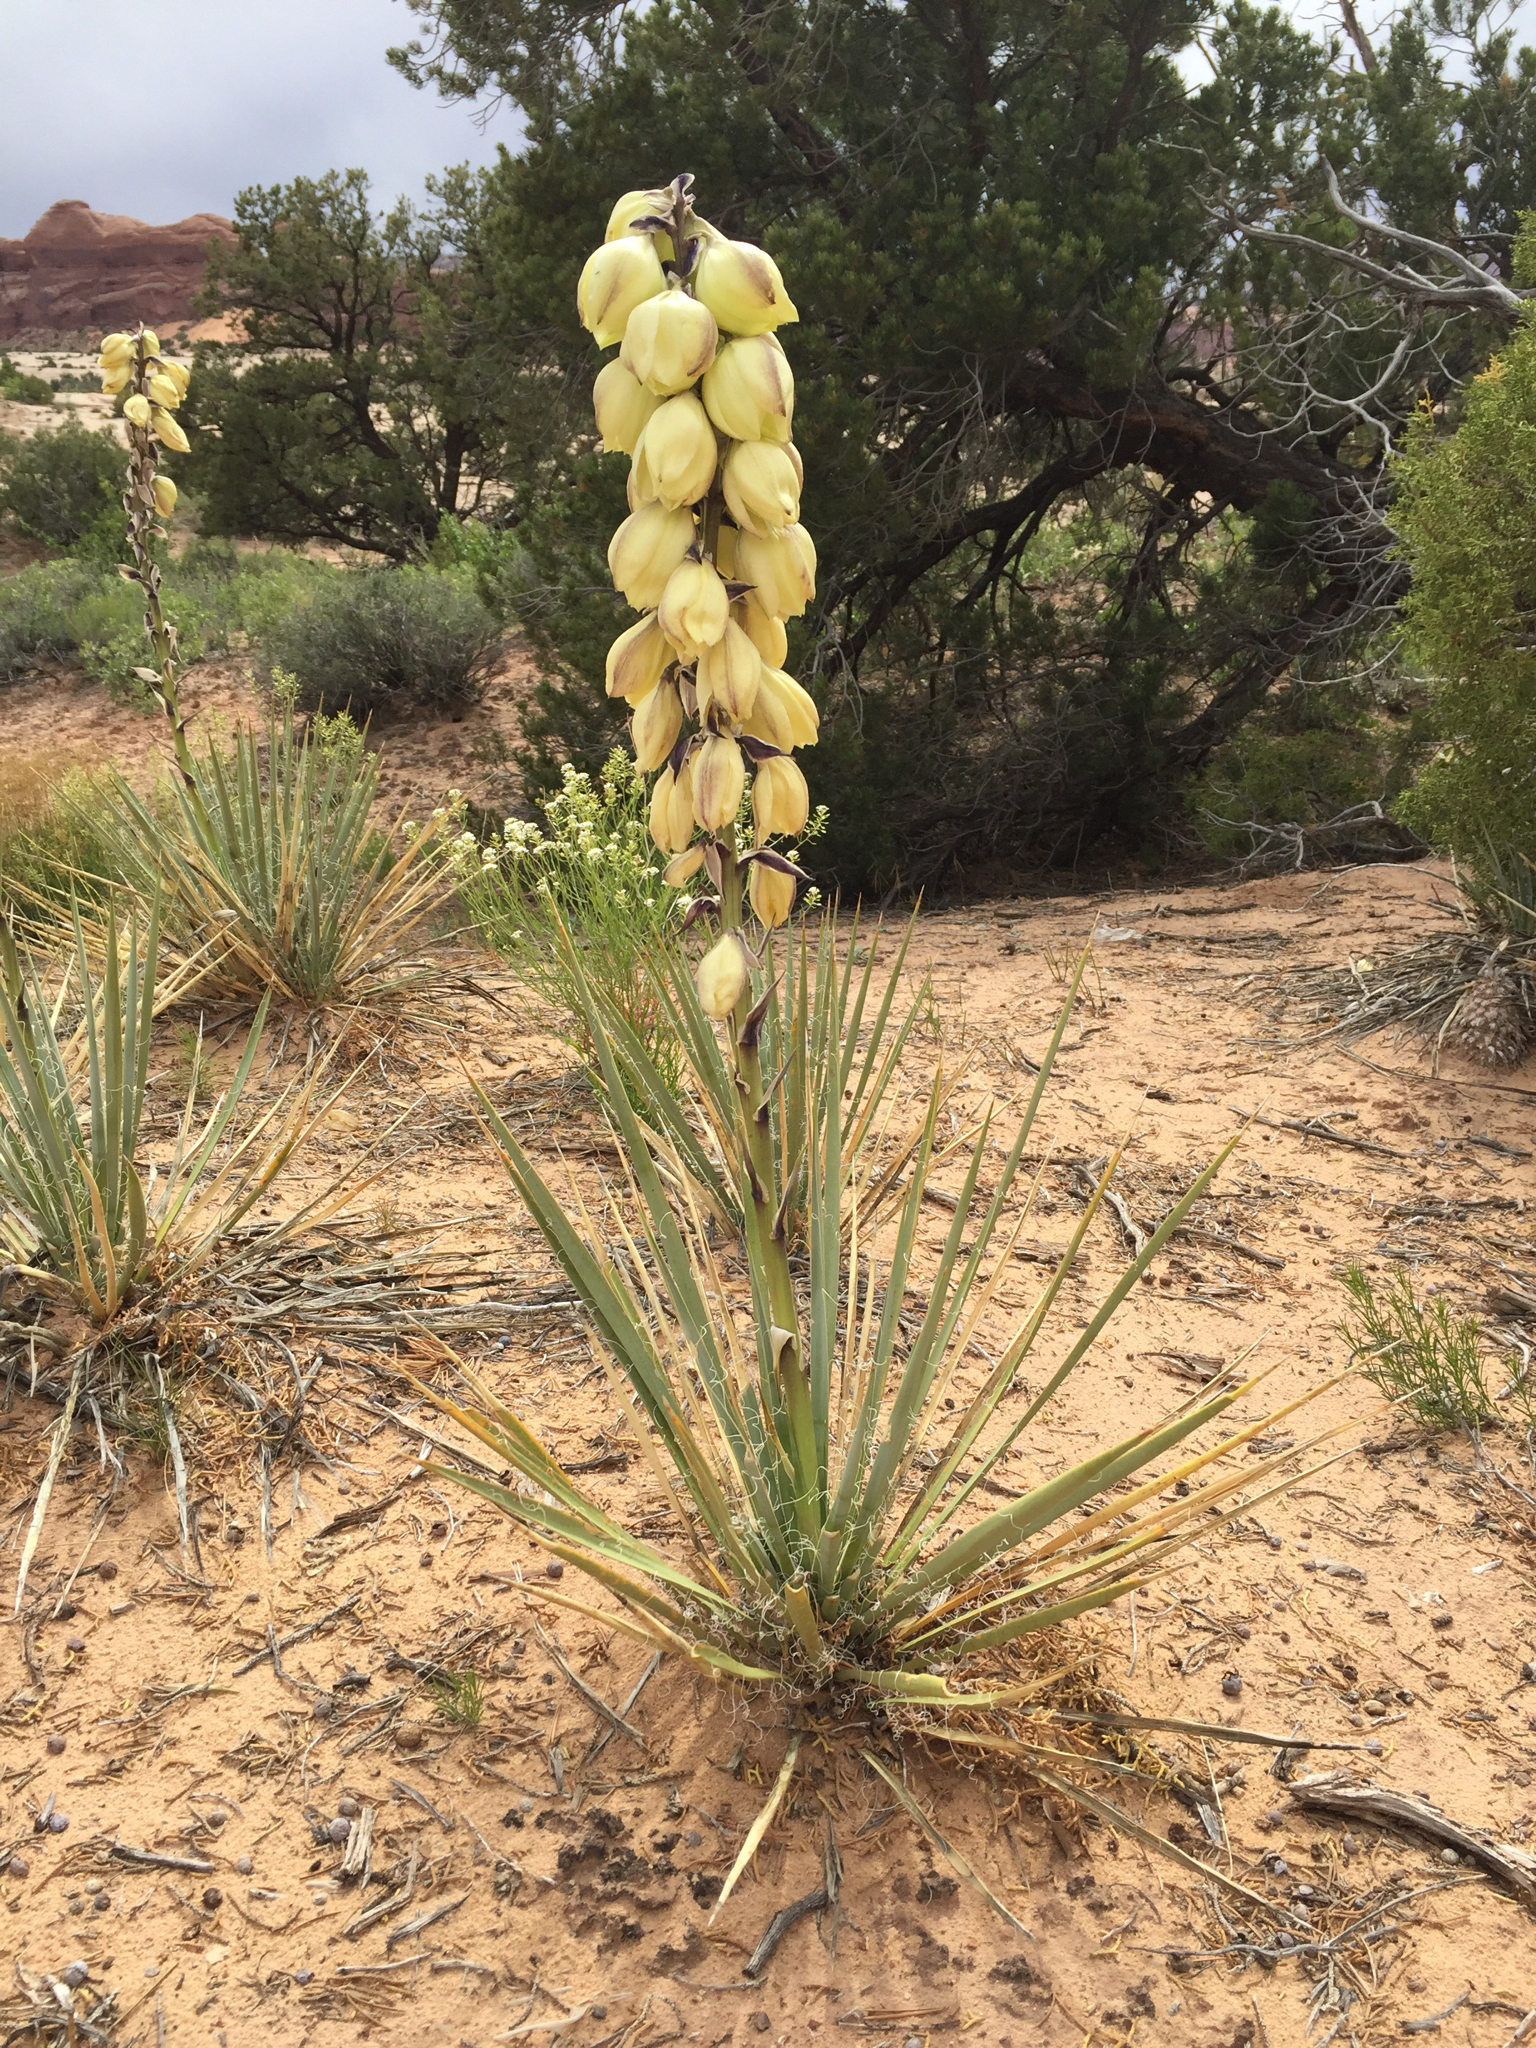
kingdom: Plantae
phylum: Tracheophyta
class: Liliopsida
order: Asparagales
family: Asparagaceae
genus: Yucca
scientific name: Yucca angustissima
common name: Narrowleaf yucca
